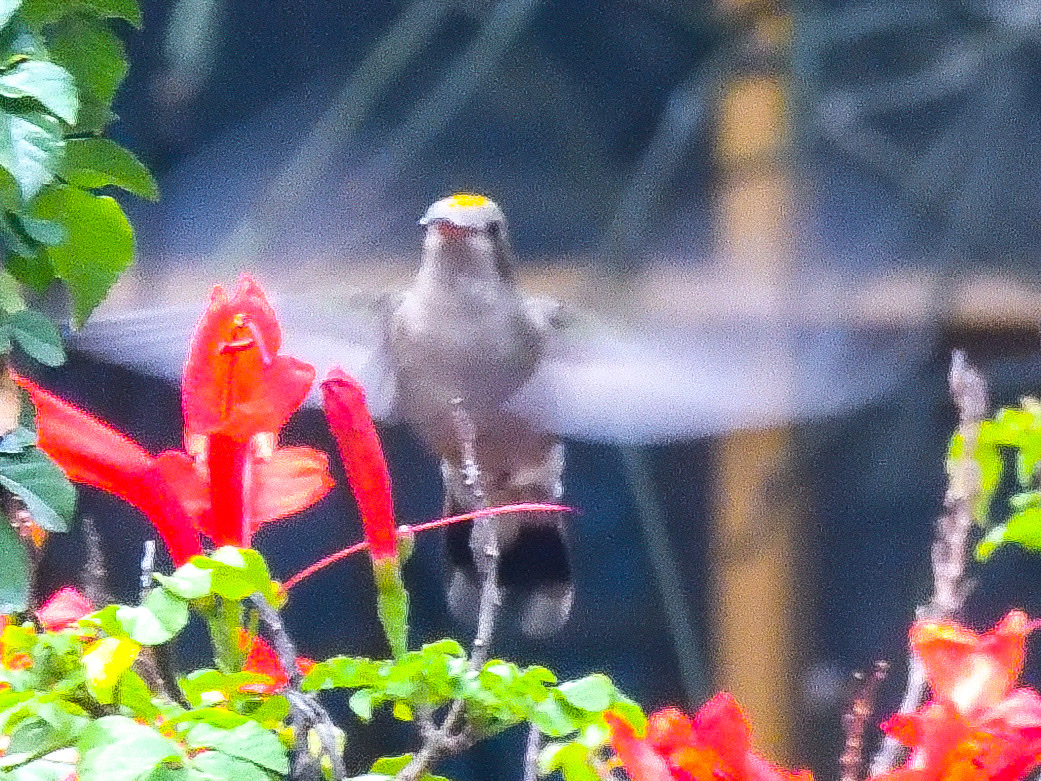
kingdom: Animalia
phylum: Chordata
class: Aves
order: Apodiformes
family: Trochilidae
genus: Lampornis
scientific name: Lampornis clemenciae
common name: Blue-throated mountaingem
